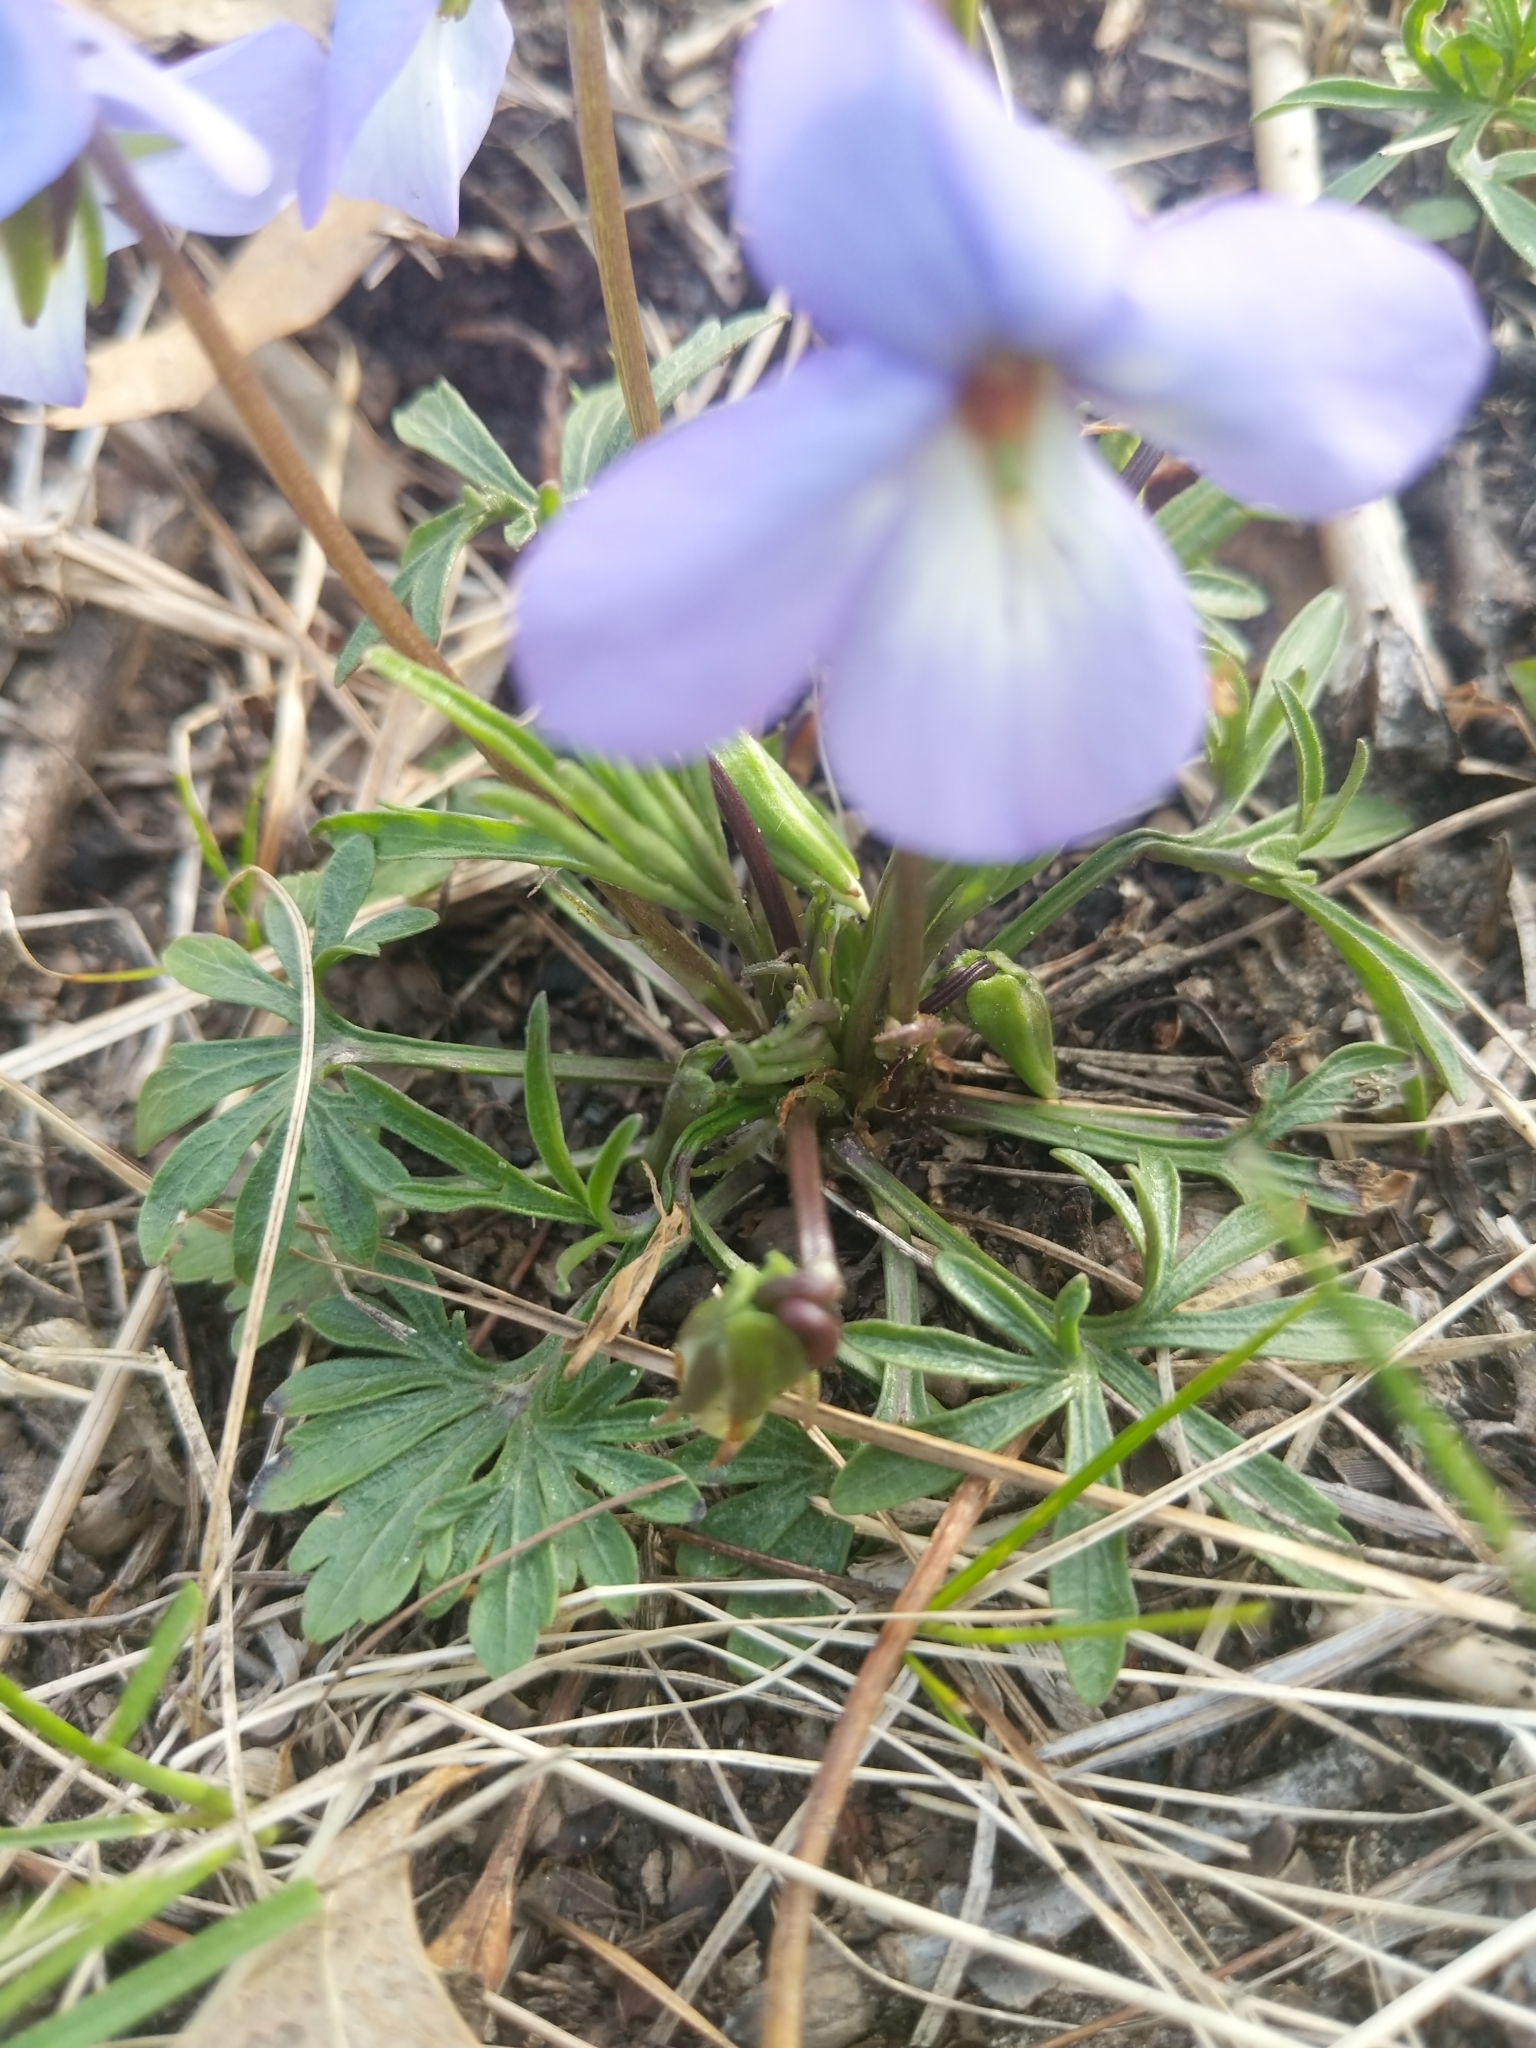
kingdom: Plantae
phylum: Tracheophyta
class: Magnoliopsida
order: Malpighiales
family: Violaceae
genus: Viola
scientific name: Viola pedata
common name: Pansy violet
